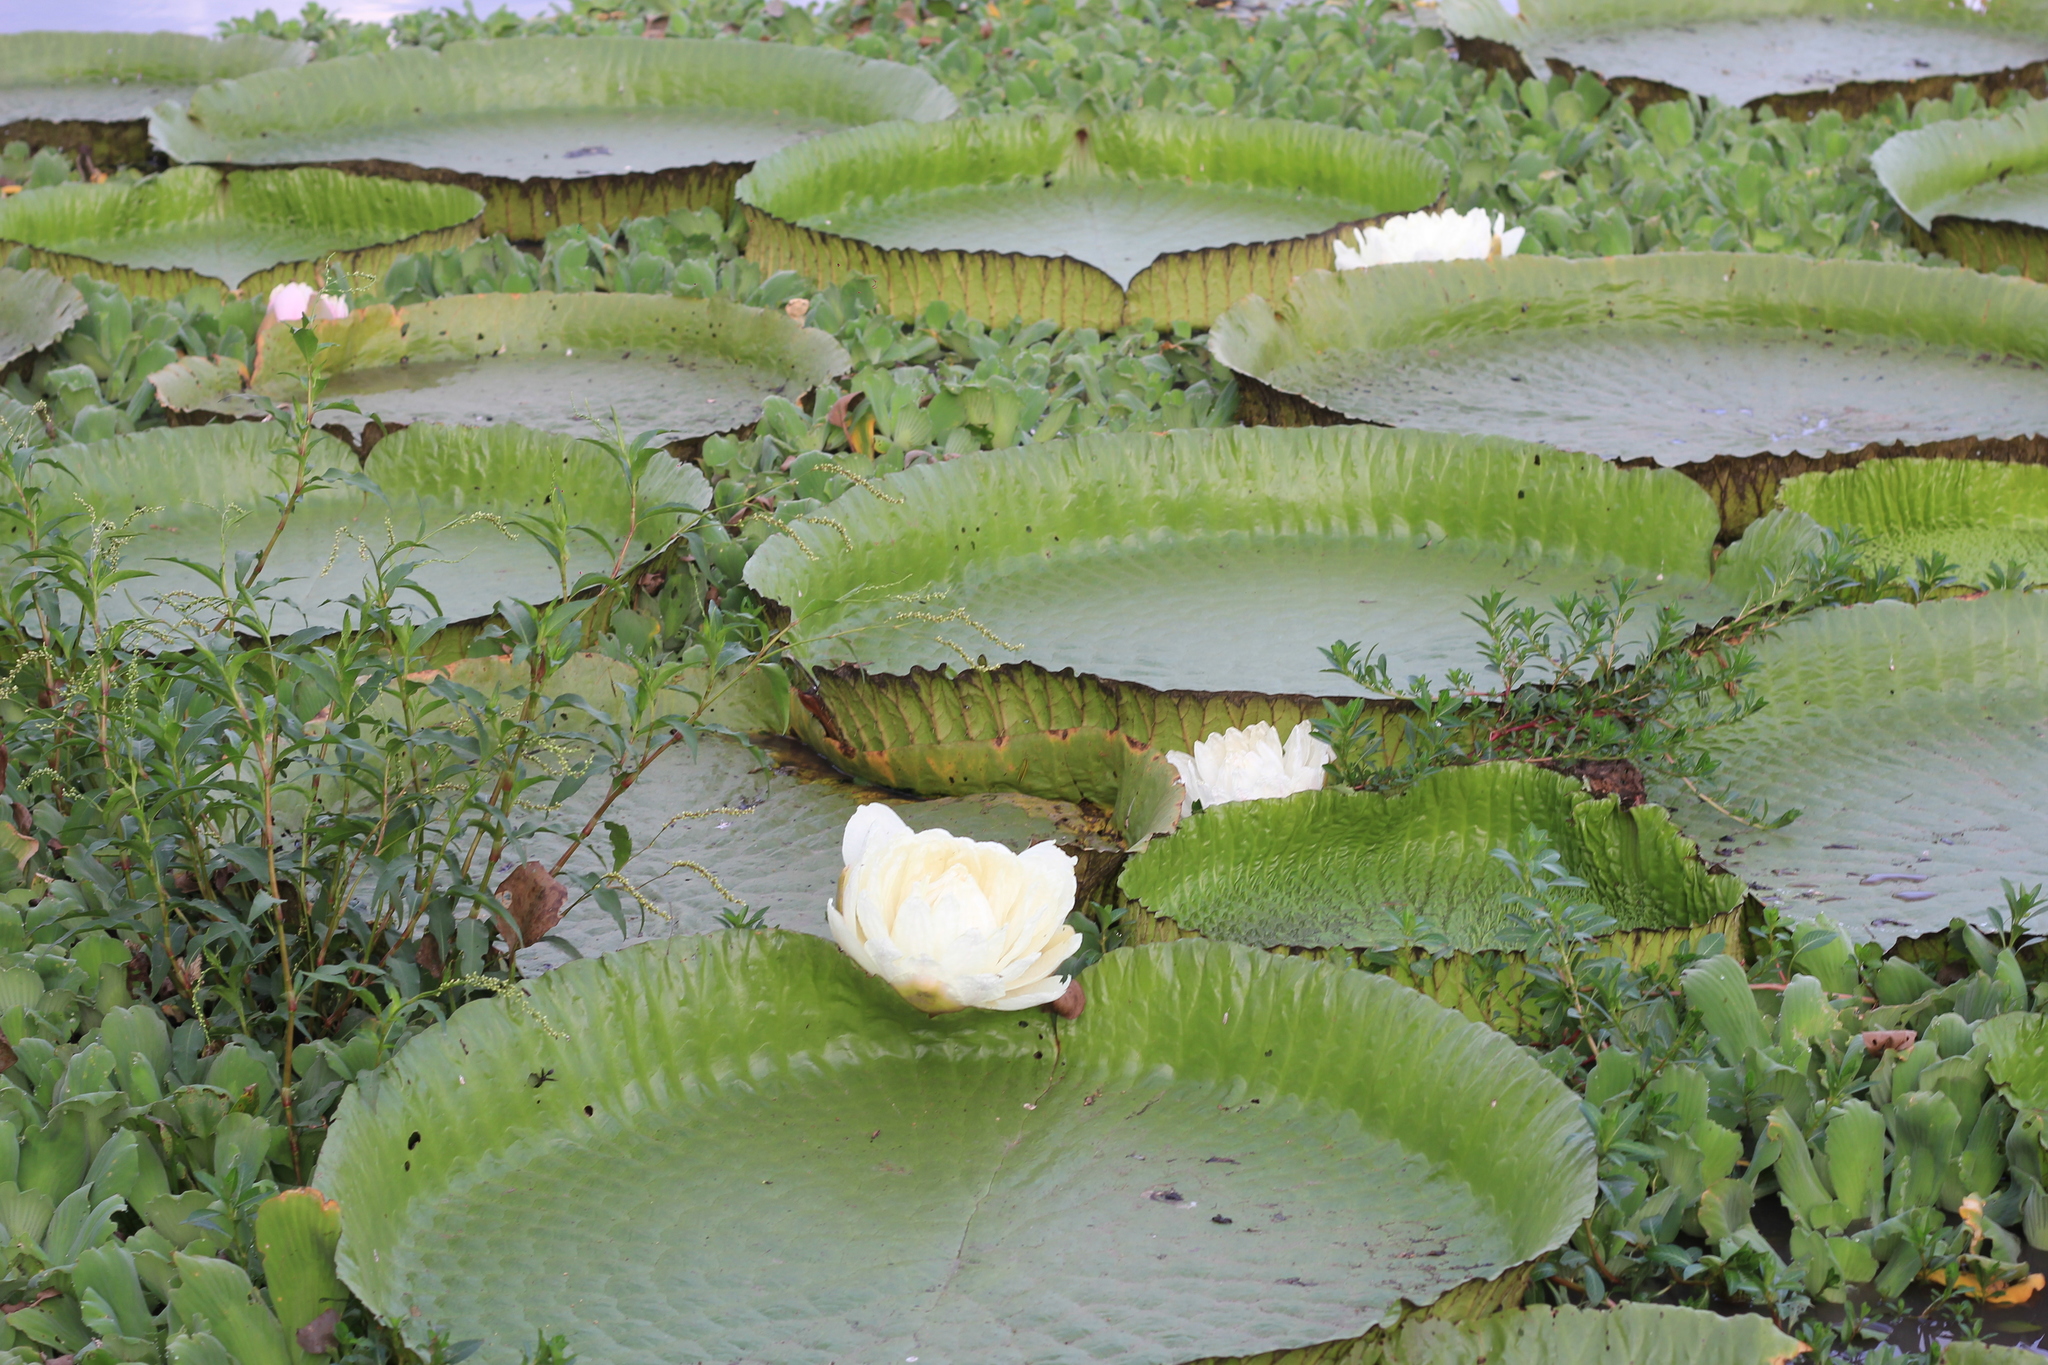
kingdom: Plantae
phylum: Tracheophyta
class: Magnoliopsida
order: Nymphaeales
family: Nymphaeaceae
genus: Victoria
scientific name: Victoria cruziana
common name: Santa cruz water-lily
